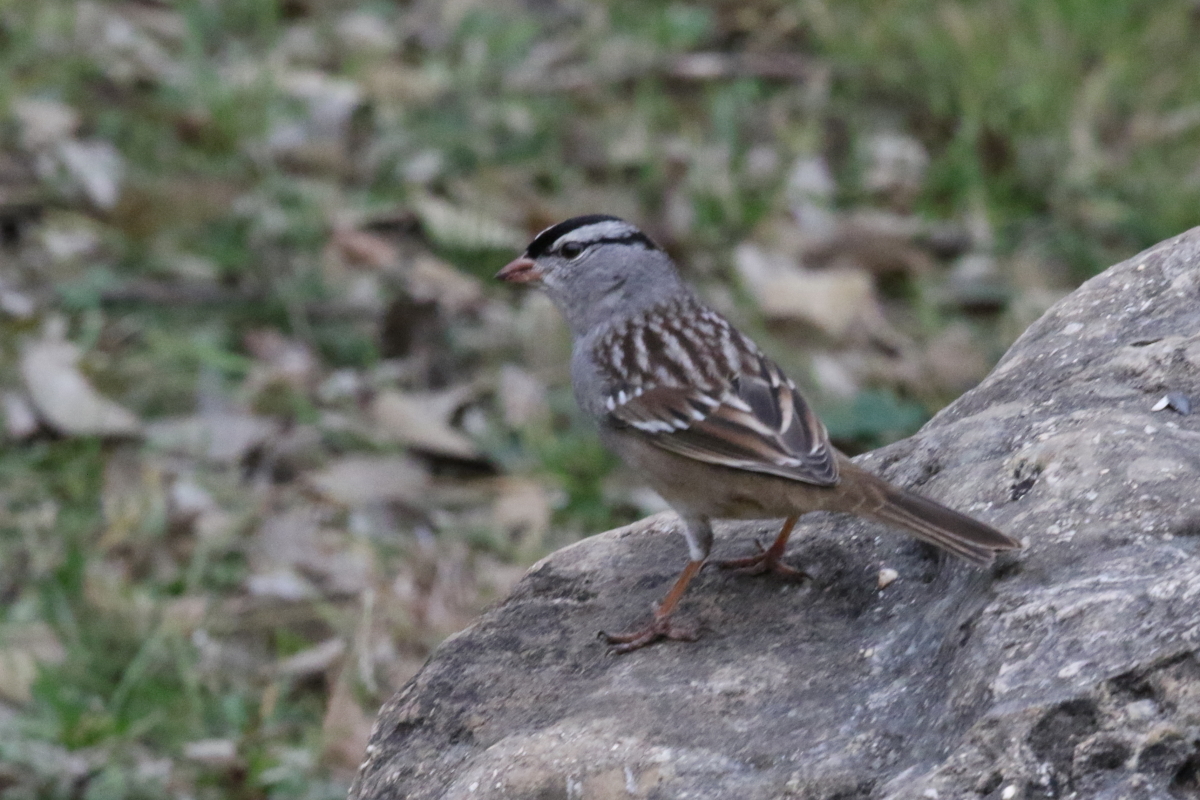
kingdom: Animalia
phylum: Chordata
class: Aves
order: Passeriformes
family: Passerellidae
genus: Zonotrichia
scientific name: Zonotrichia leucophrys
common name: White-crowned sparrow
